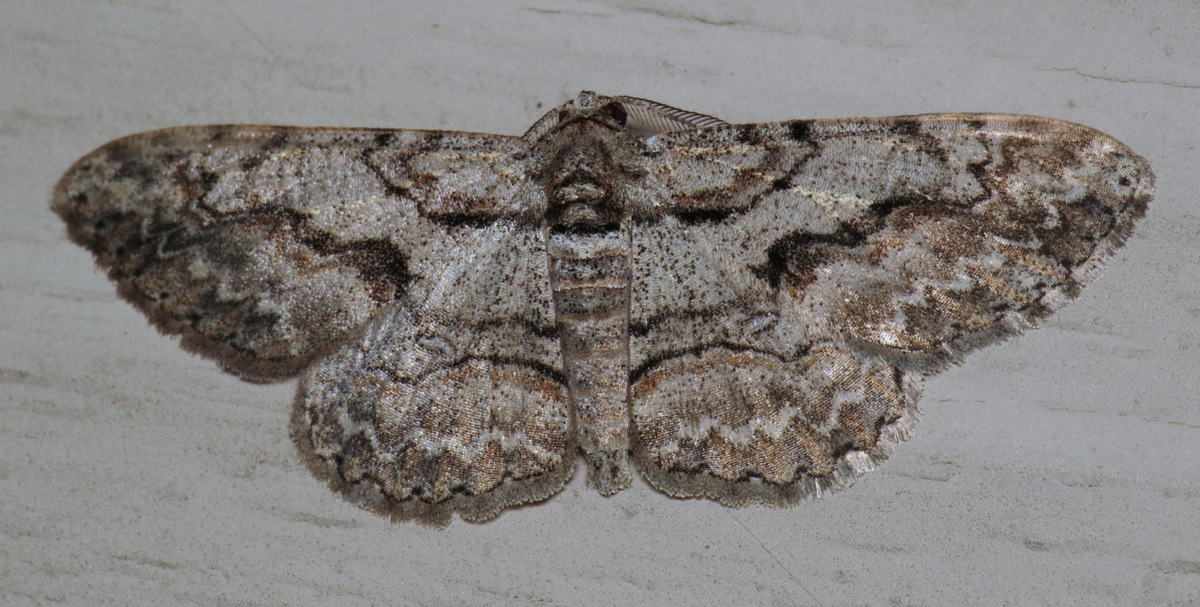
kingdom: Animalia
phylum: Arthropoda
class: Insecta
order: Lepidoptera
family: Geometridae
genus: Iridopsis
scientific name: Iridopsis humaria
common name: Small purplish gray
